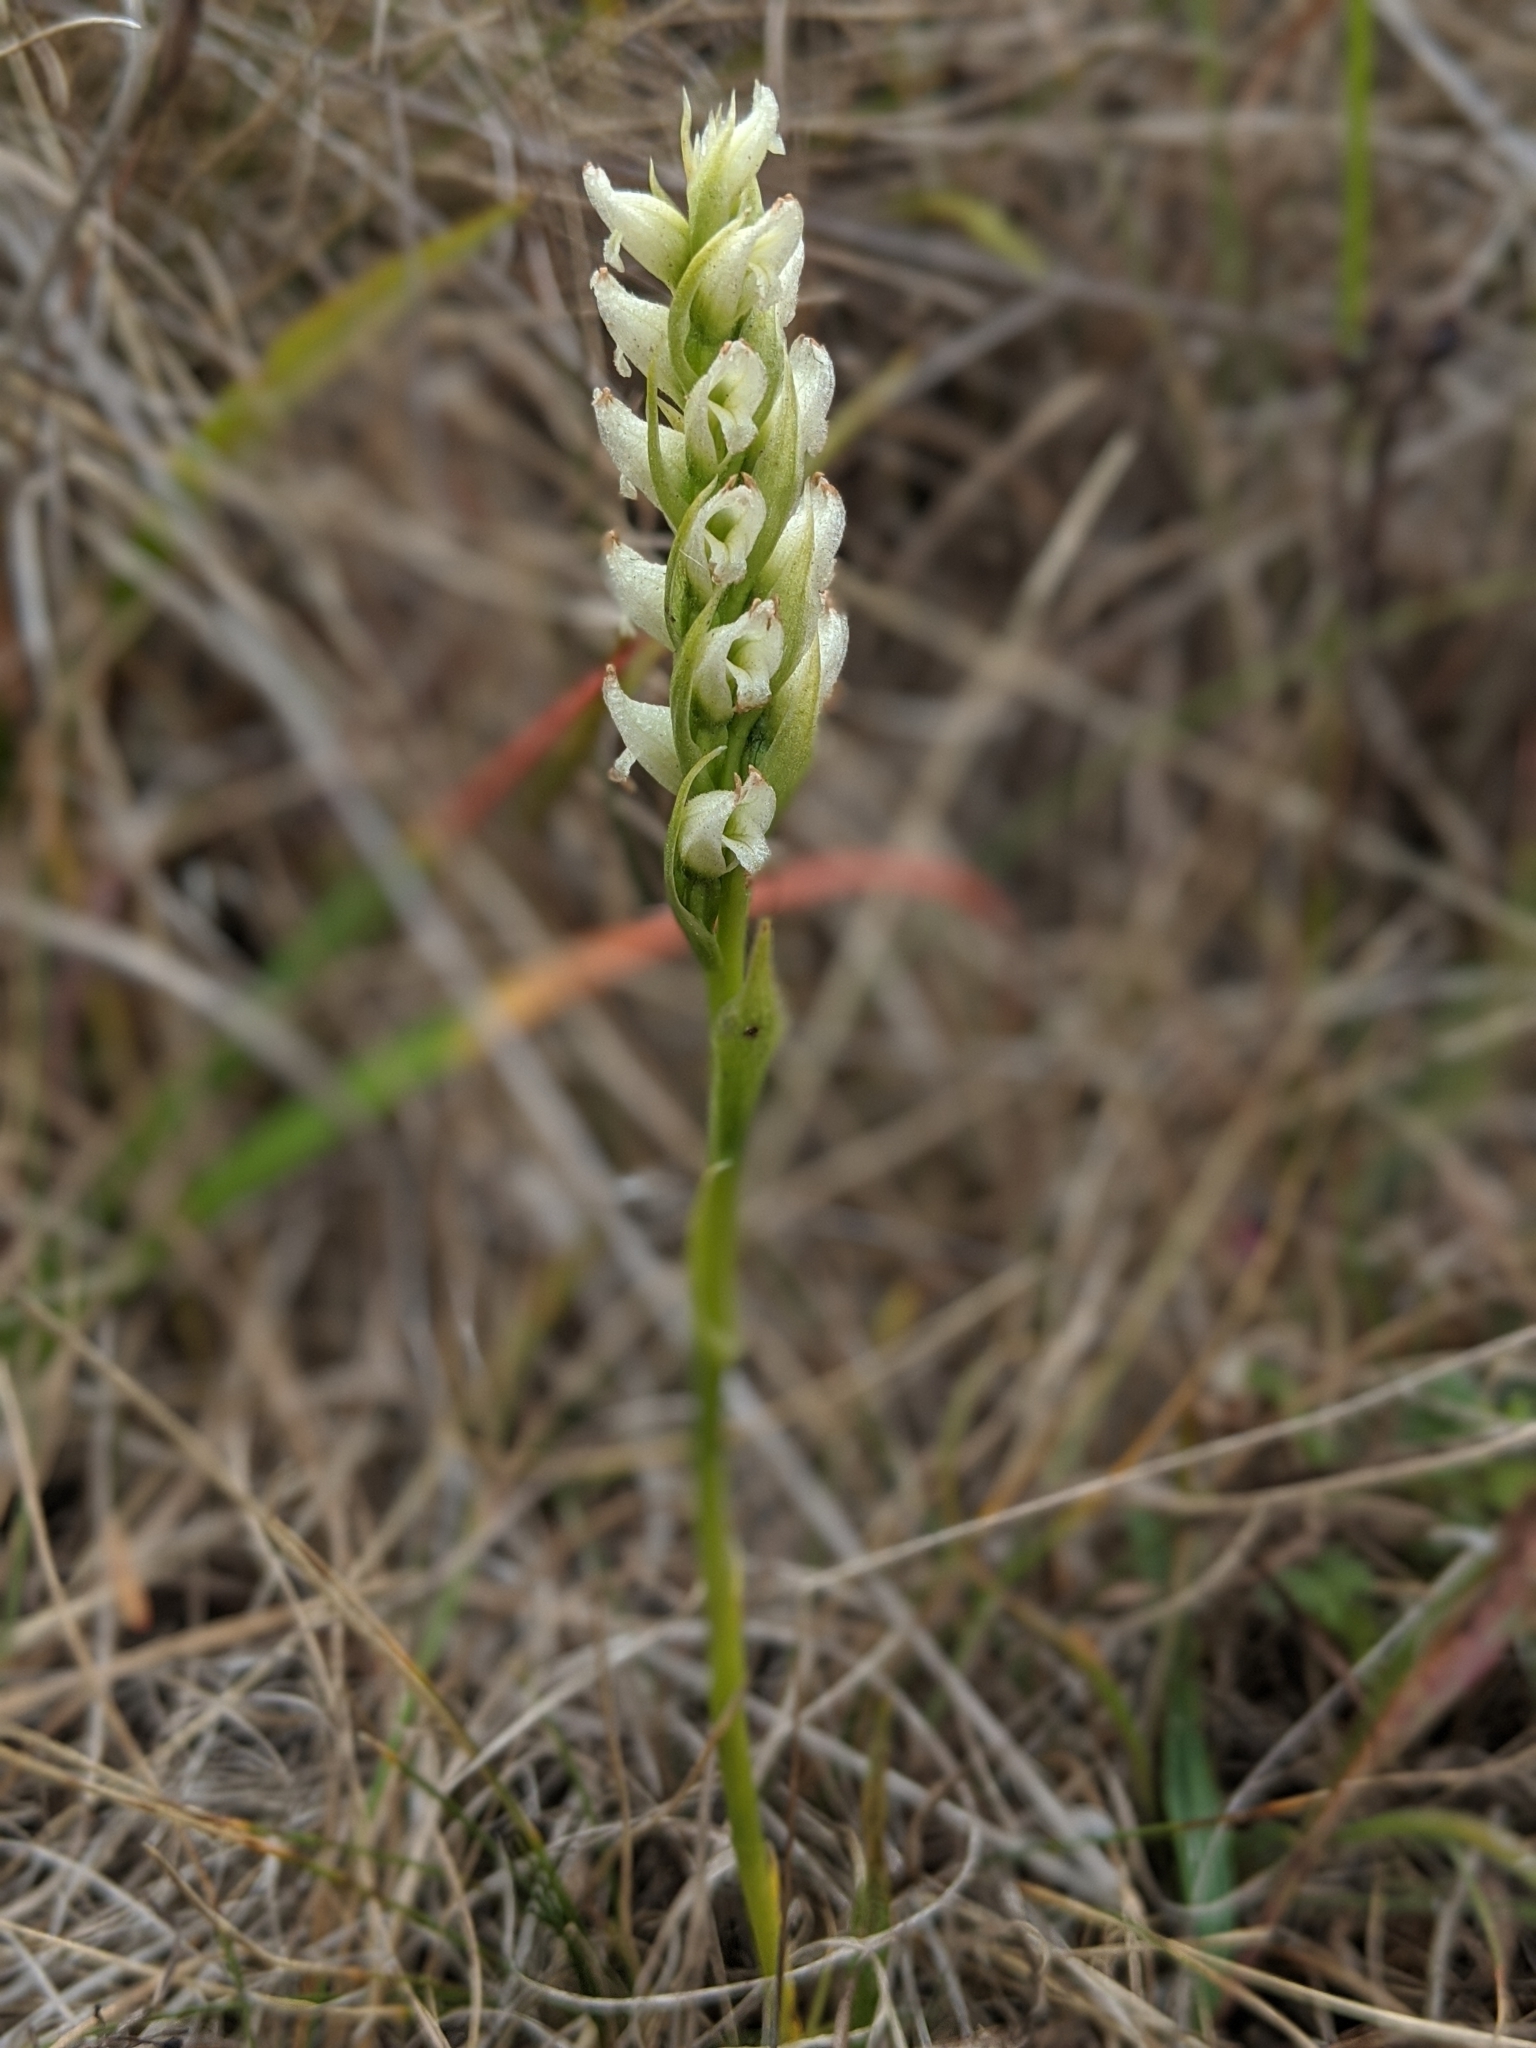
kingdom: Plantae
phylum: Tracheophyta
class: Liliopsida
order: Asparagales
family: Orchidaceae
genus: Spiranthes
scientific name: Spiranthes romanzoffiana
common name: Irish lady's-tresses
